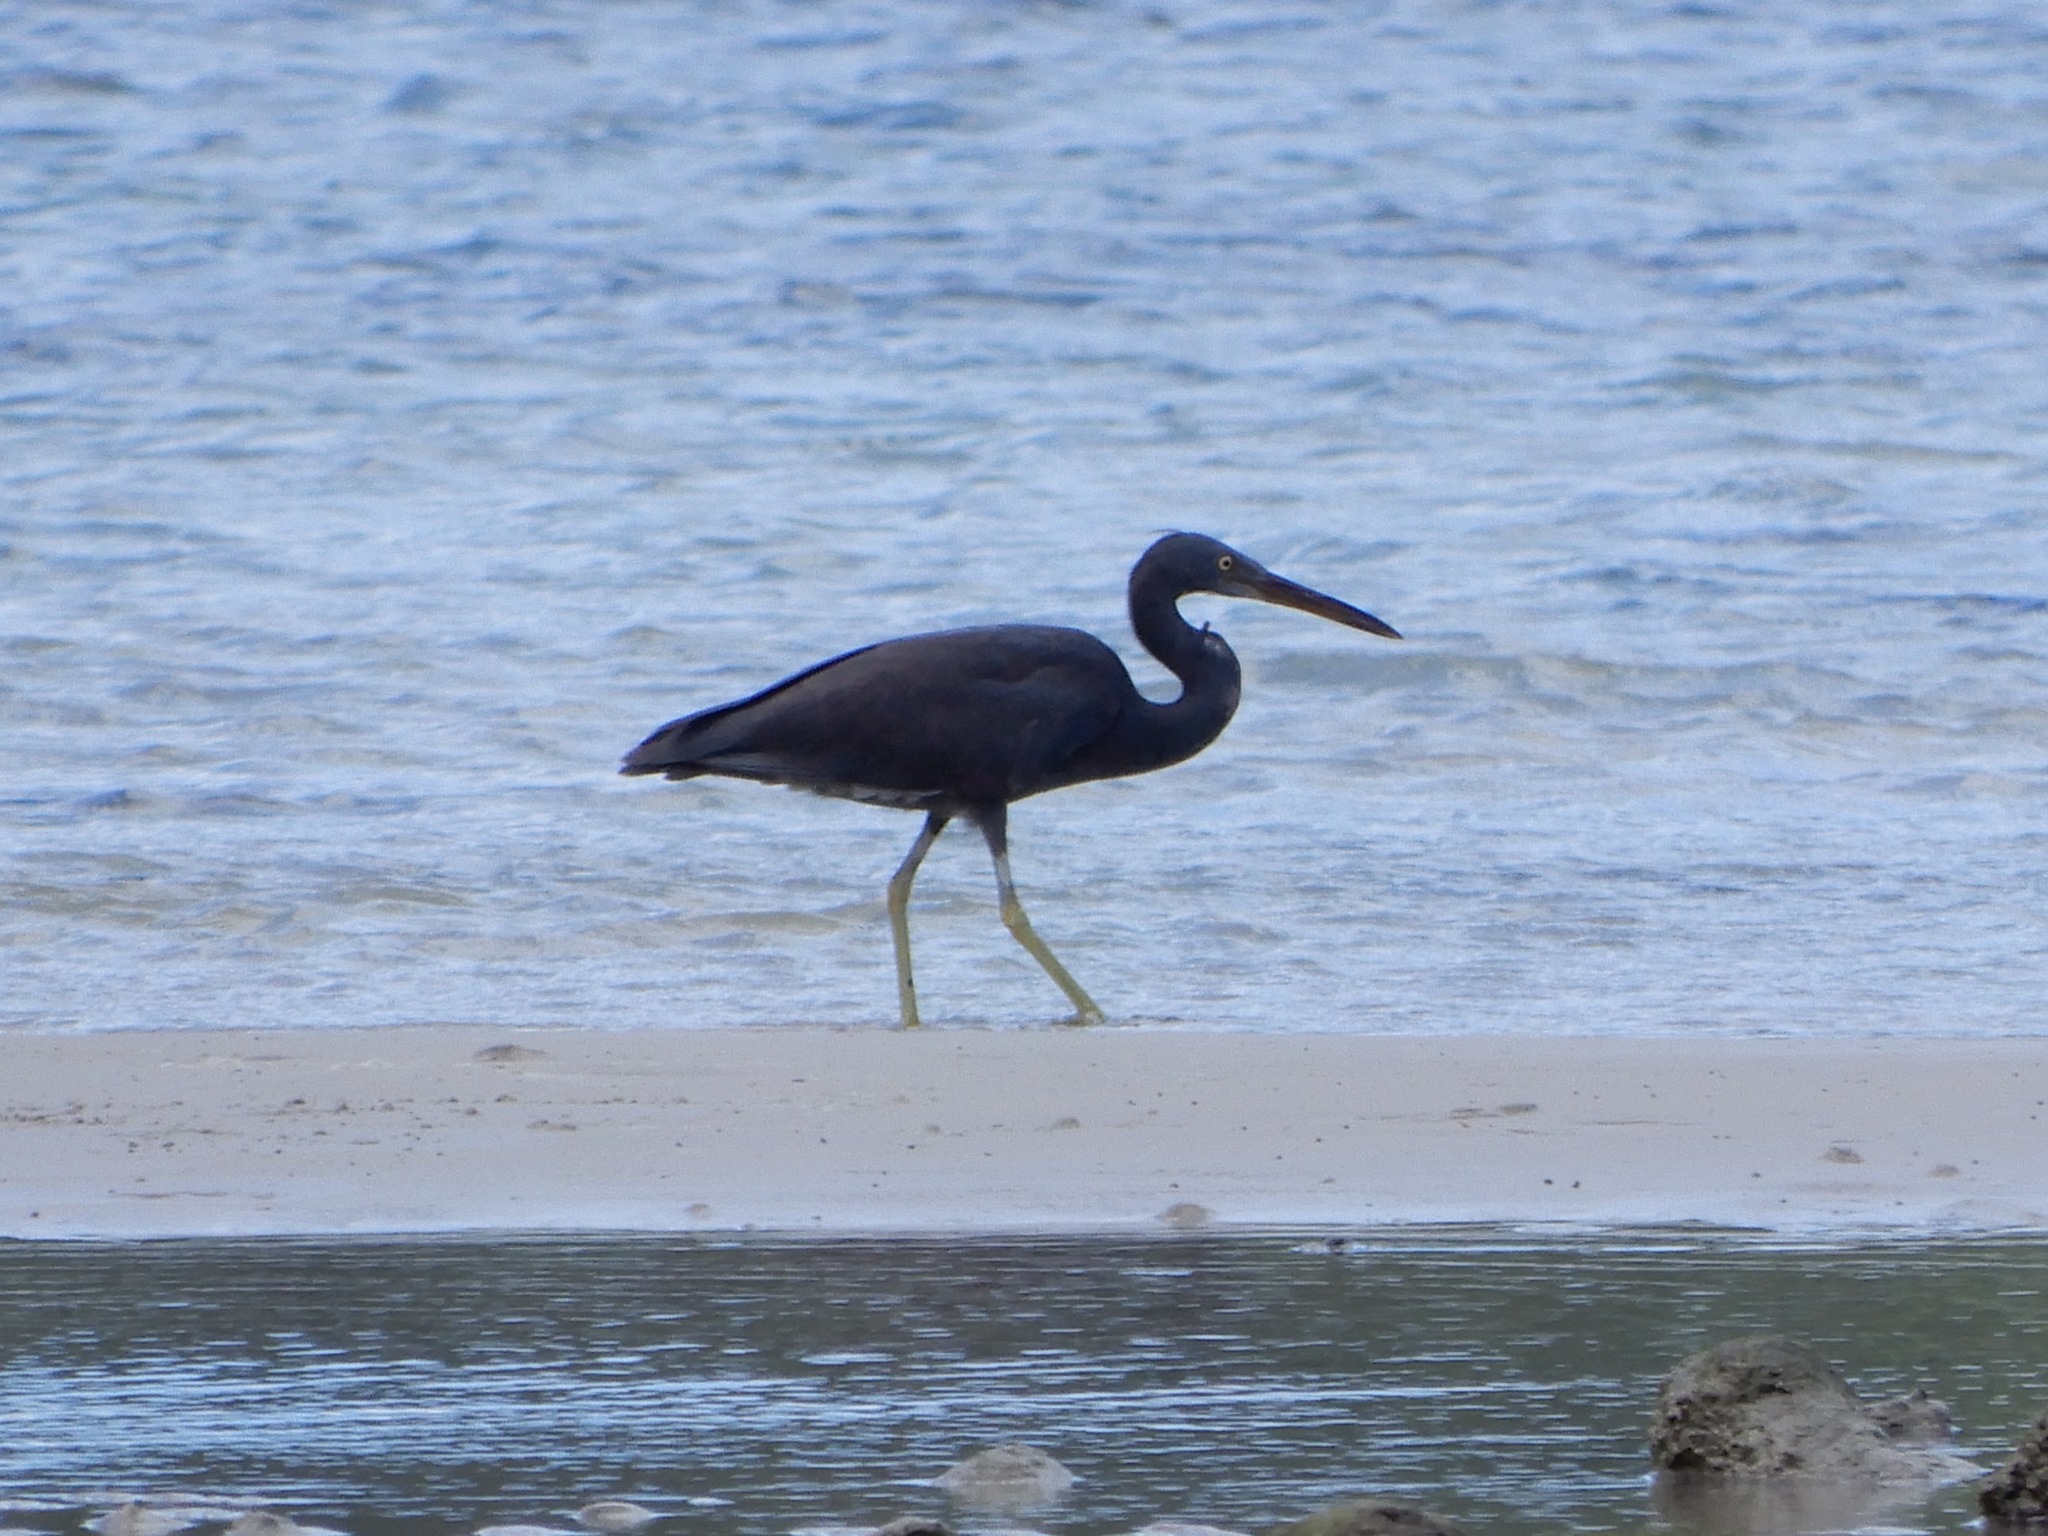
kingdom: Animalia
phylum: Chordata
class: Aves
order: Pelecaniformes
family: Ardeidae
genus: Egretta
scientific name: Egretta sacra
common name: Pacific reef heron
